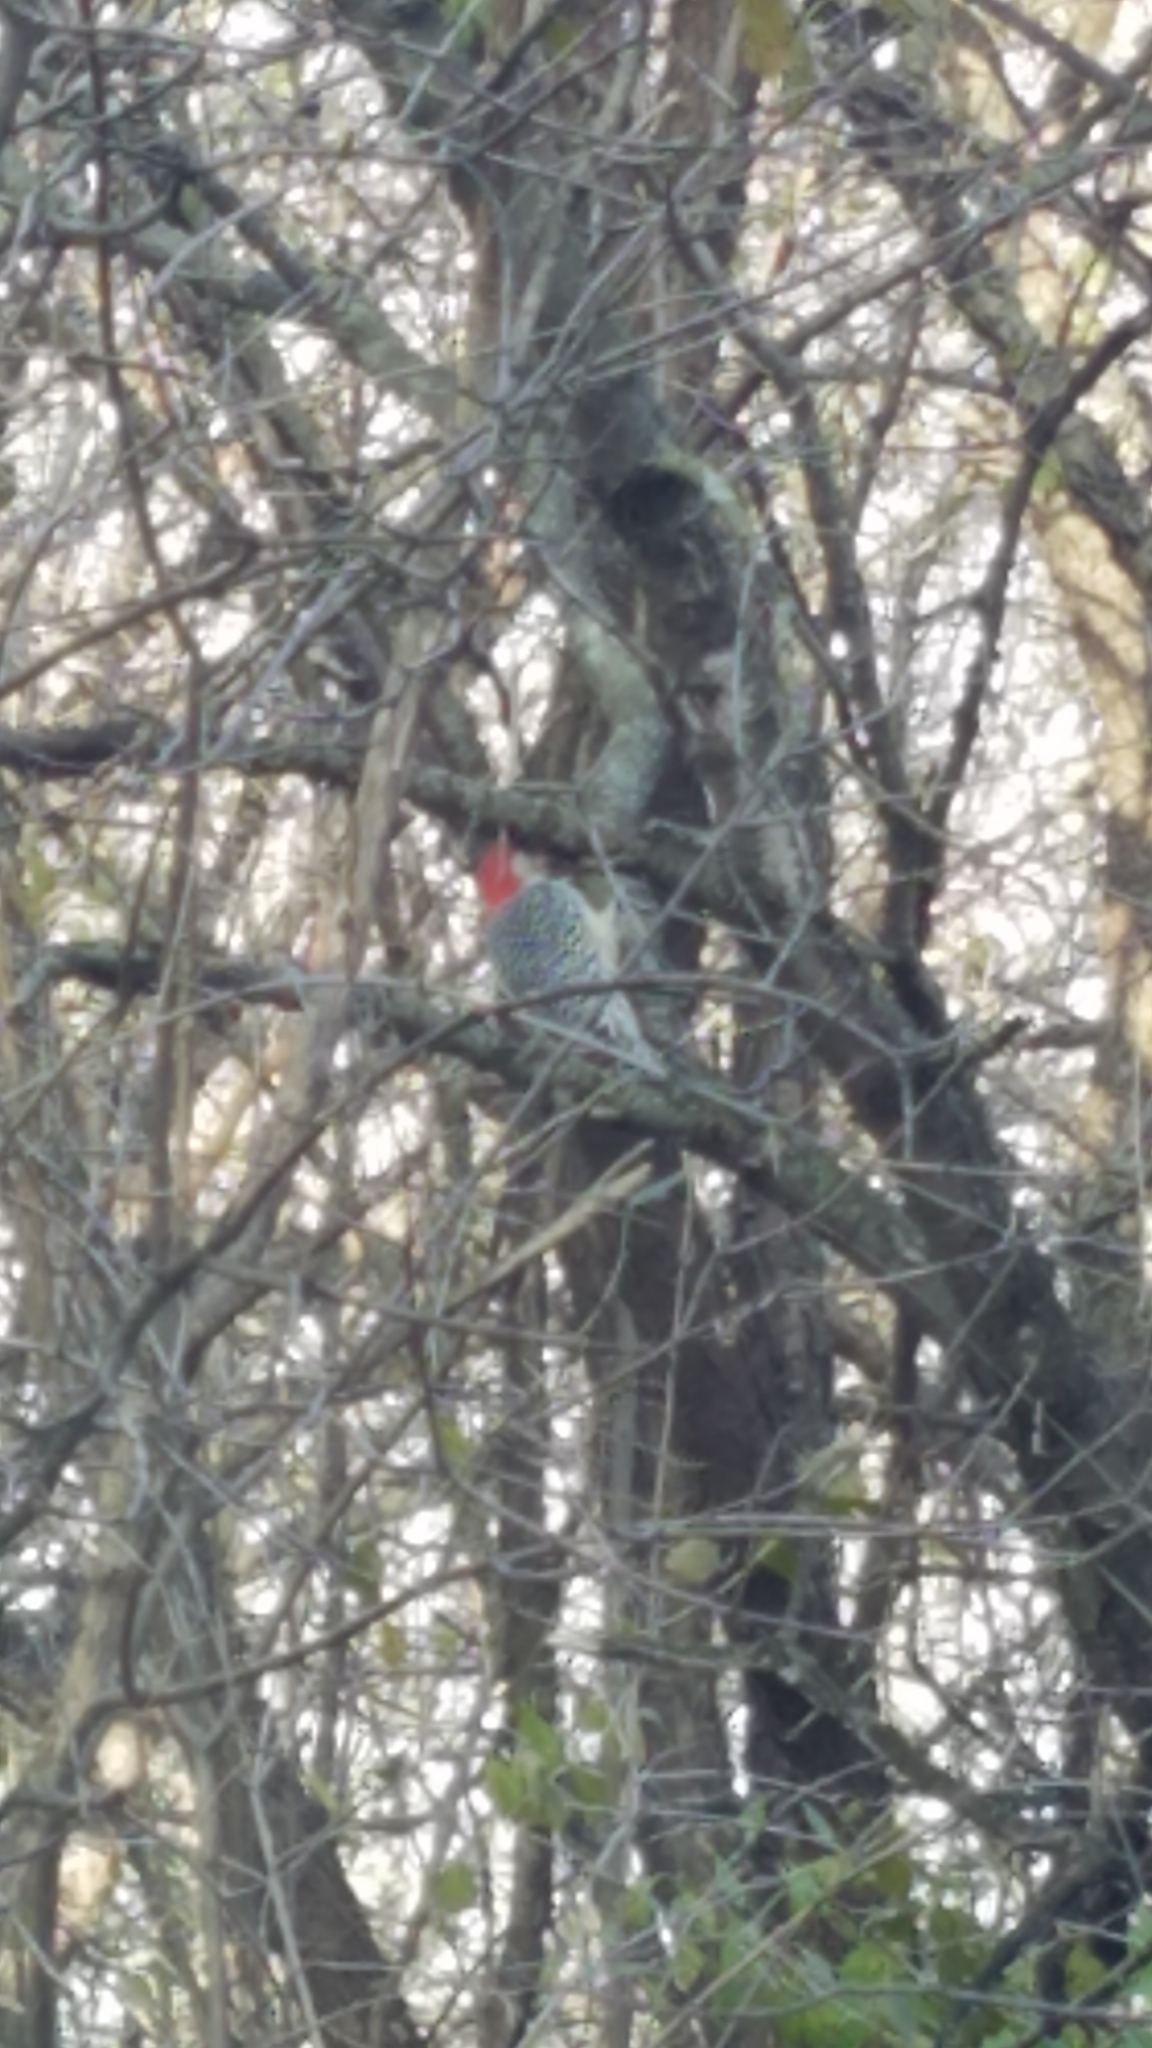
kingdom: Animalia
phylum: Chordata
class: Aves
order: Piciformes
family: Picidae
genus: Melanerpes
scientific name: Melanerpes carolinus
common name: Red-bellied woodpecker
